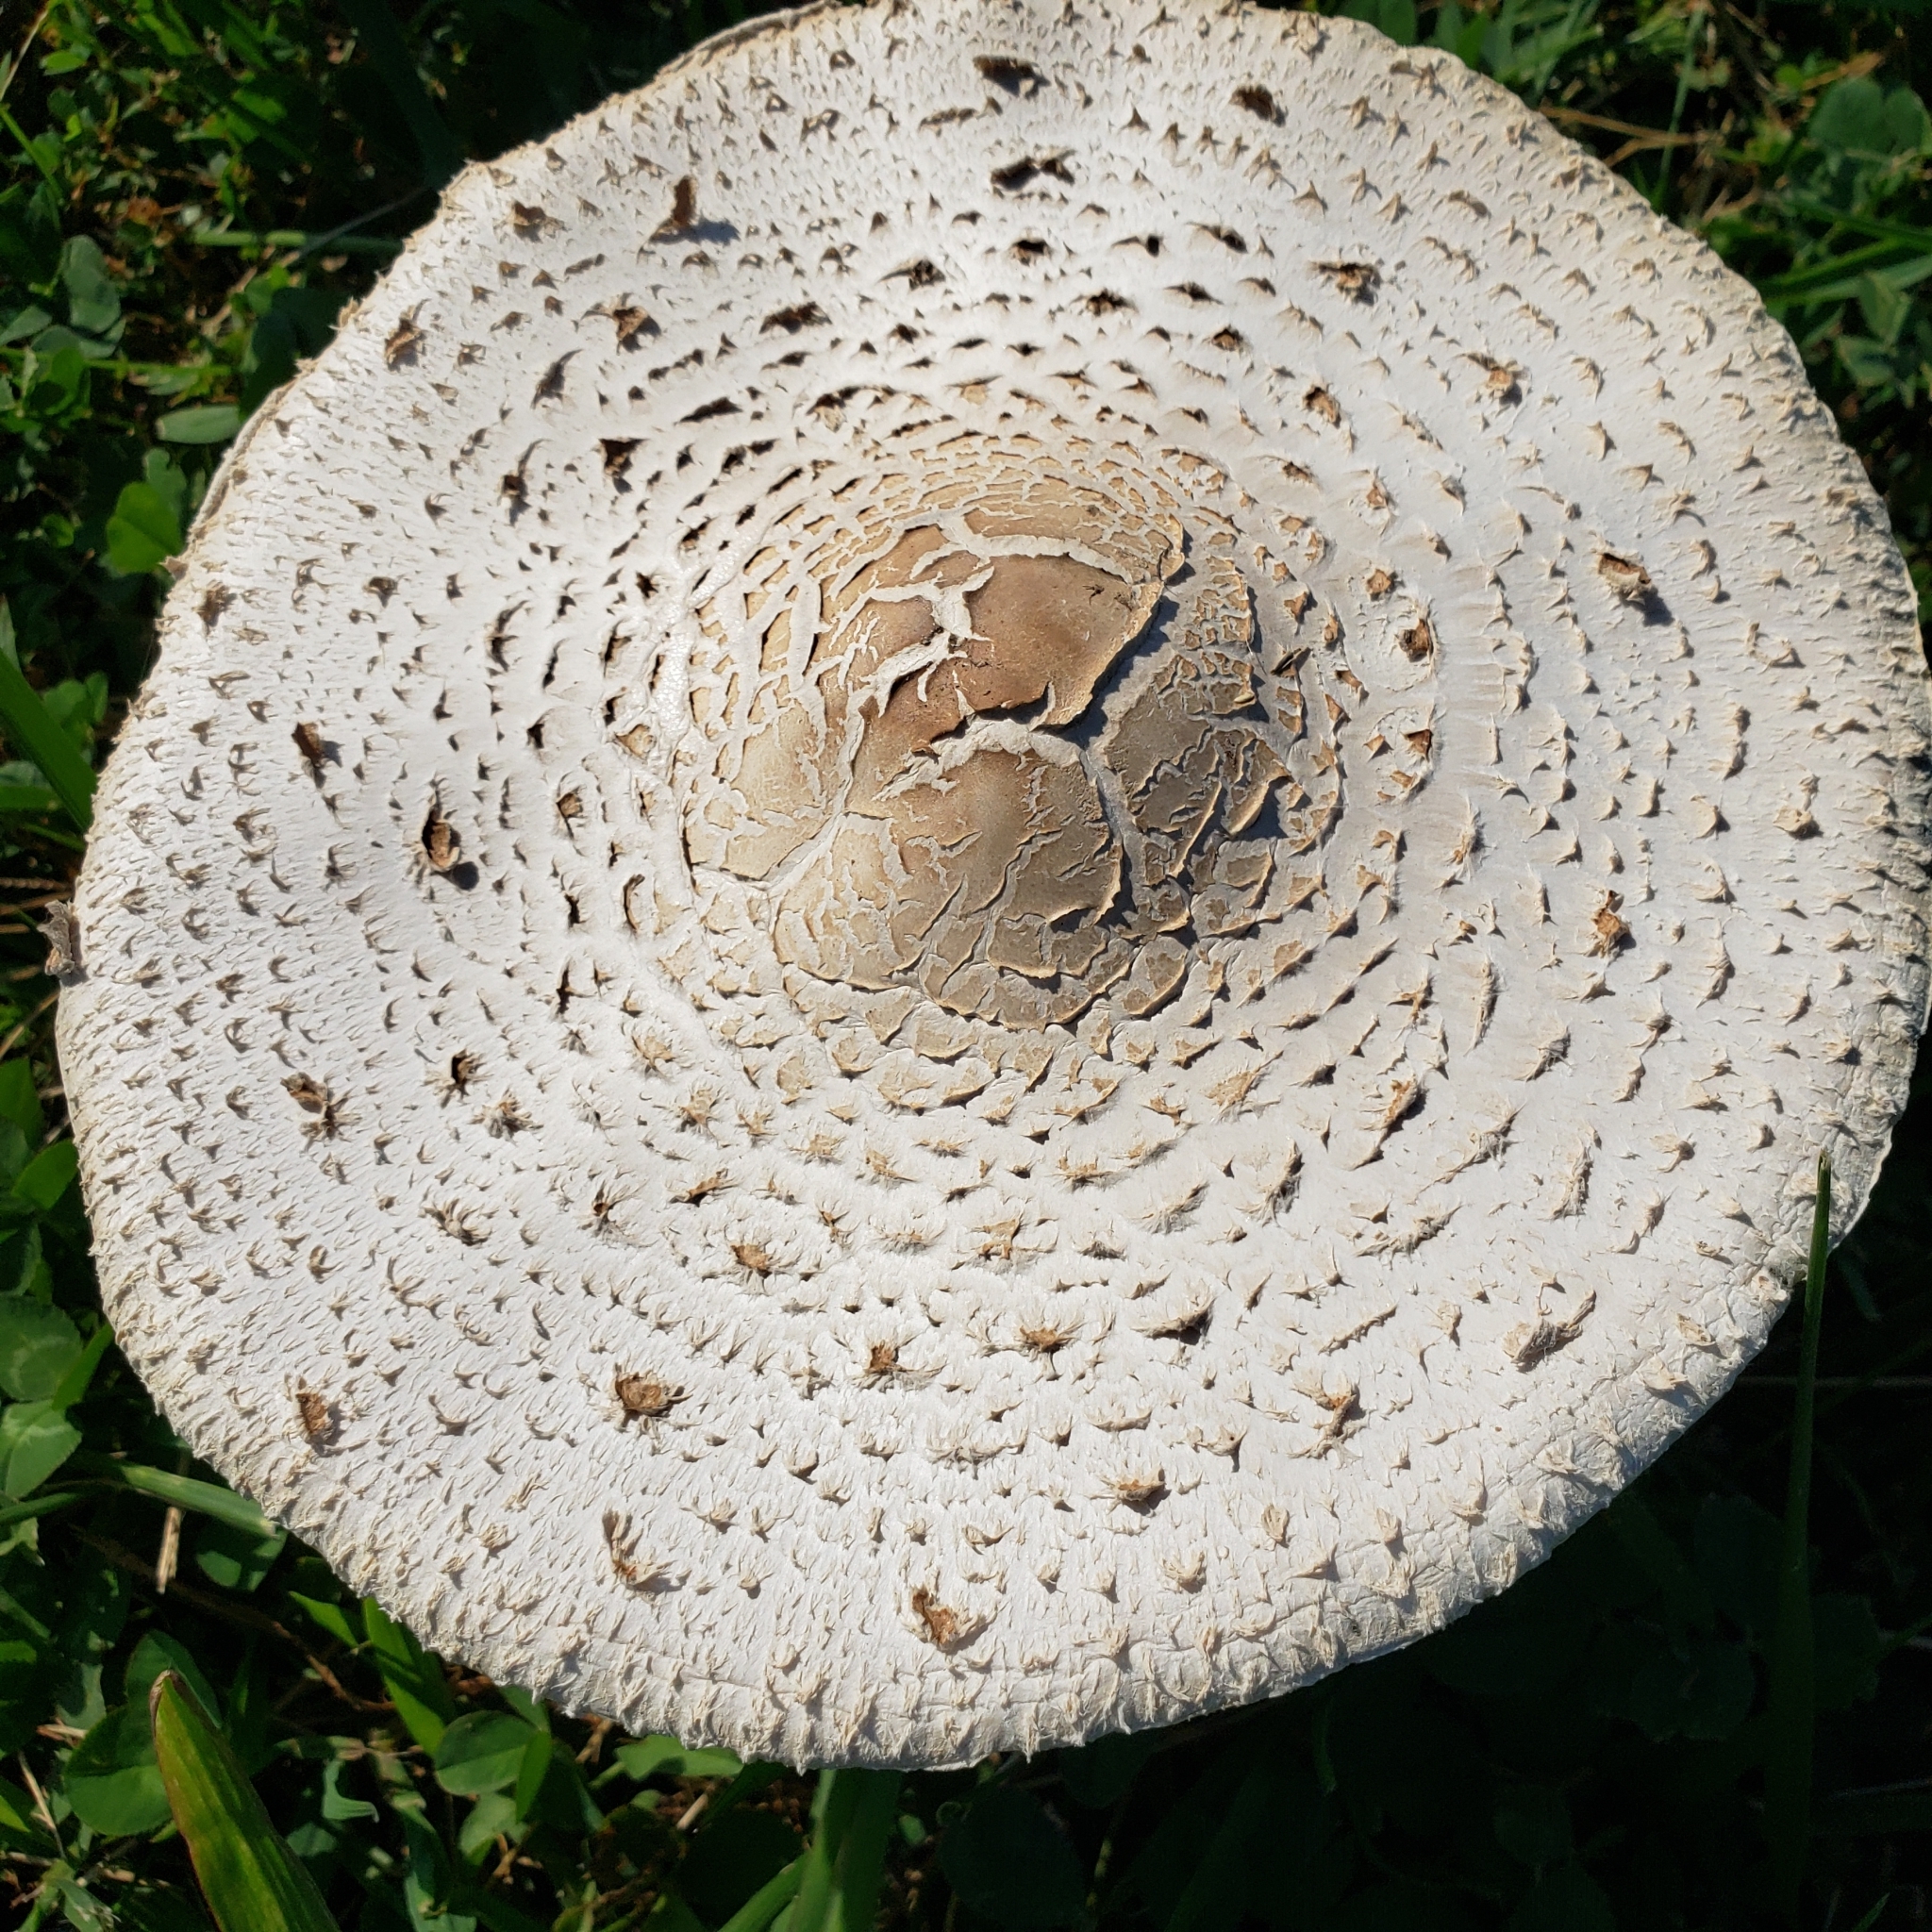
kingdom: Fungi
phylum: Basidiomycota
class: Agaricomycetes
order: Agaricales
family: Agaricaceae
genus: Chlorophyllum
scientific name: Chlorophyllum molybdites
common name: False parasol
